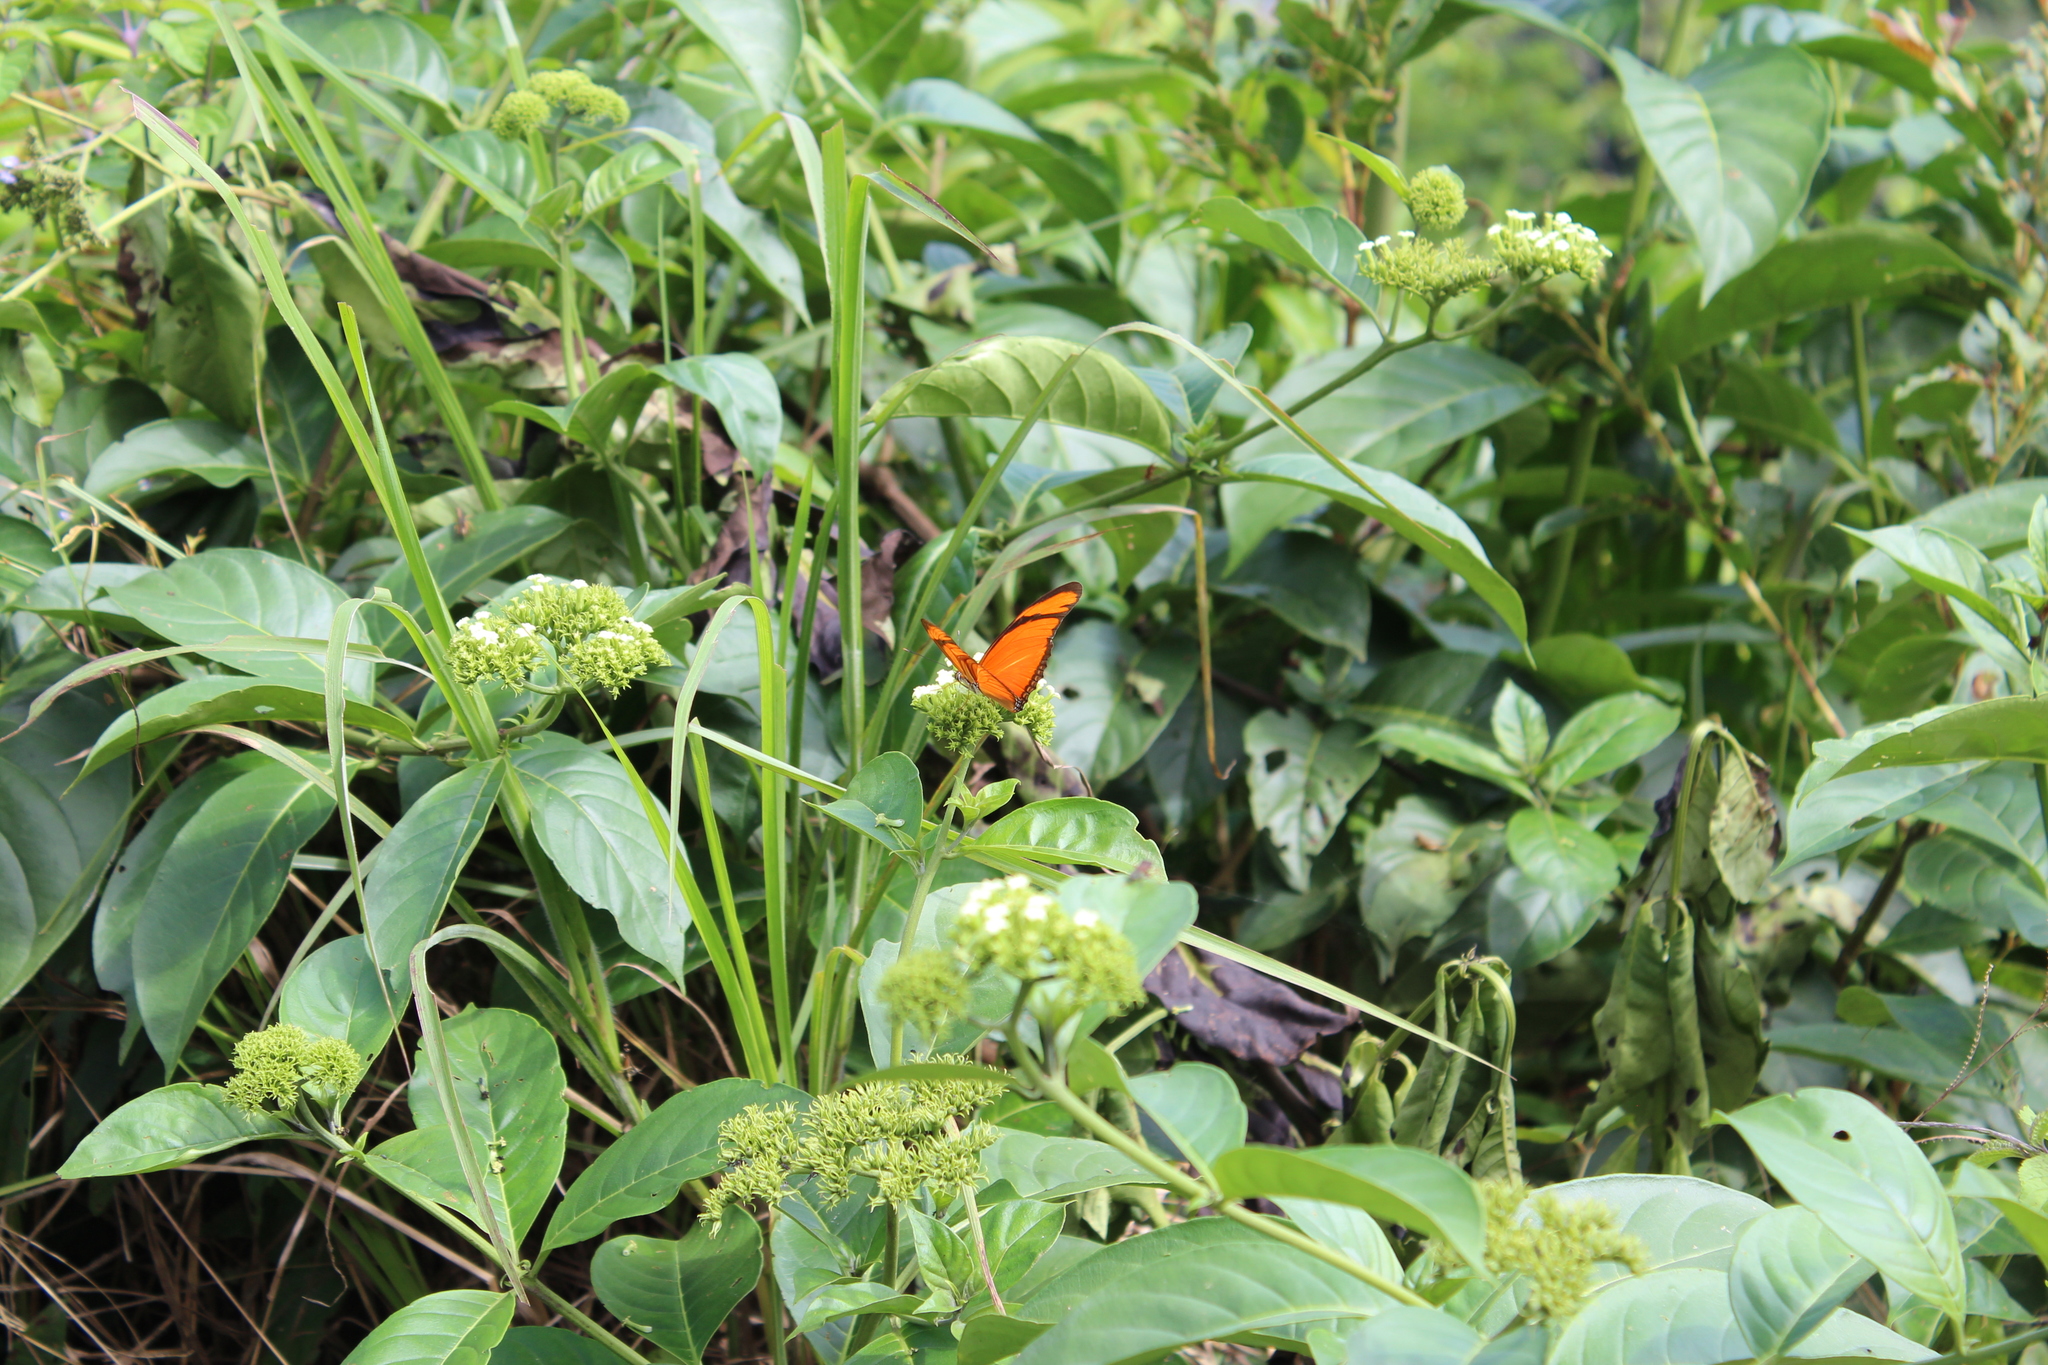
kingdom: Animalia
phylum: Arthropoda
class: Insecta
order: Lepidoptera
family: Nymphalidae
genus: Dryas
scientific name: Dryas iulia
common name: Flambeau
